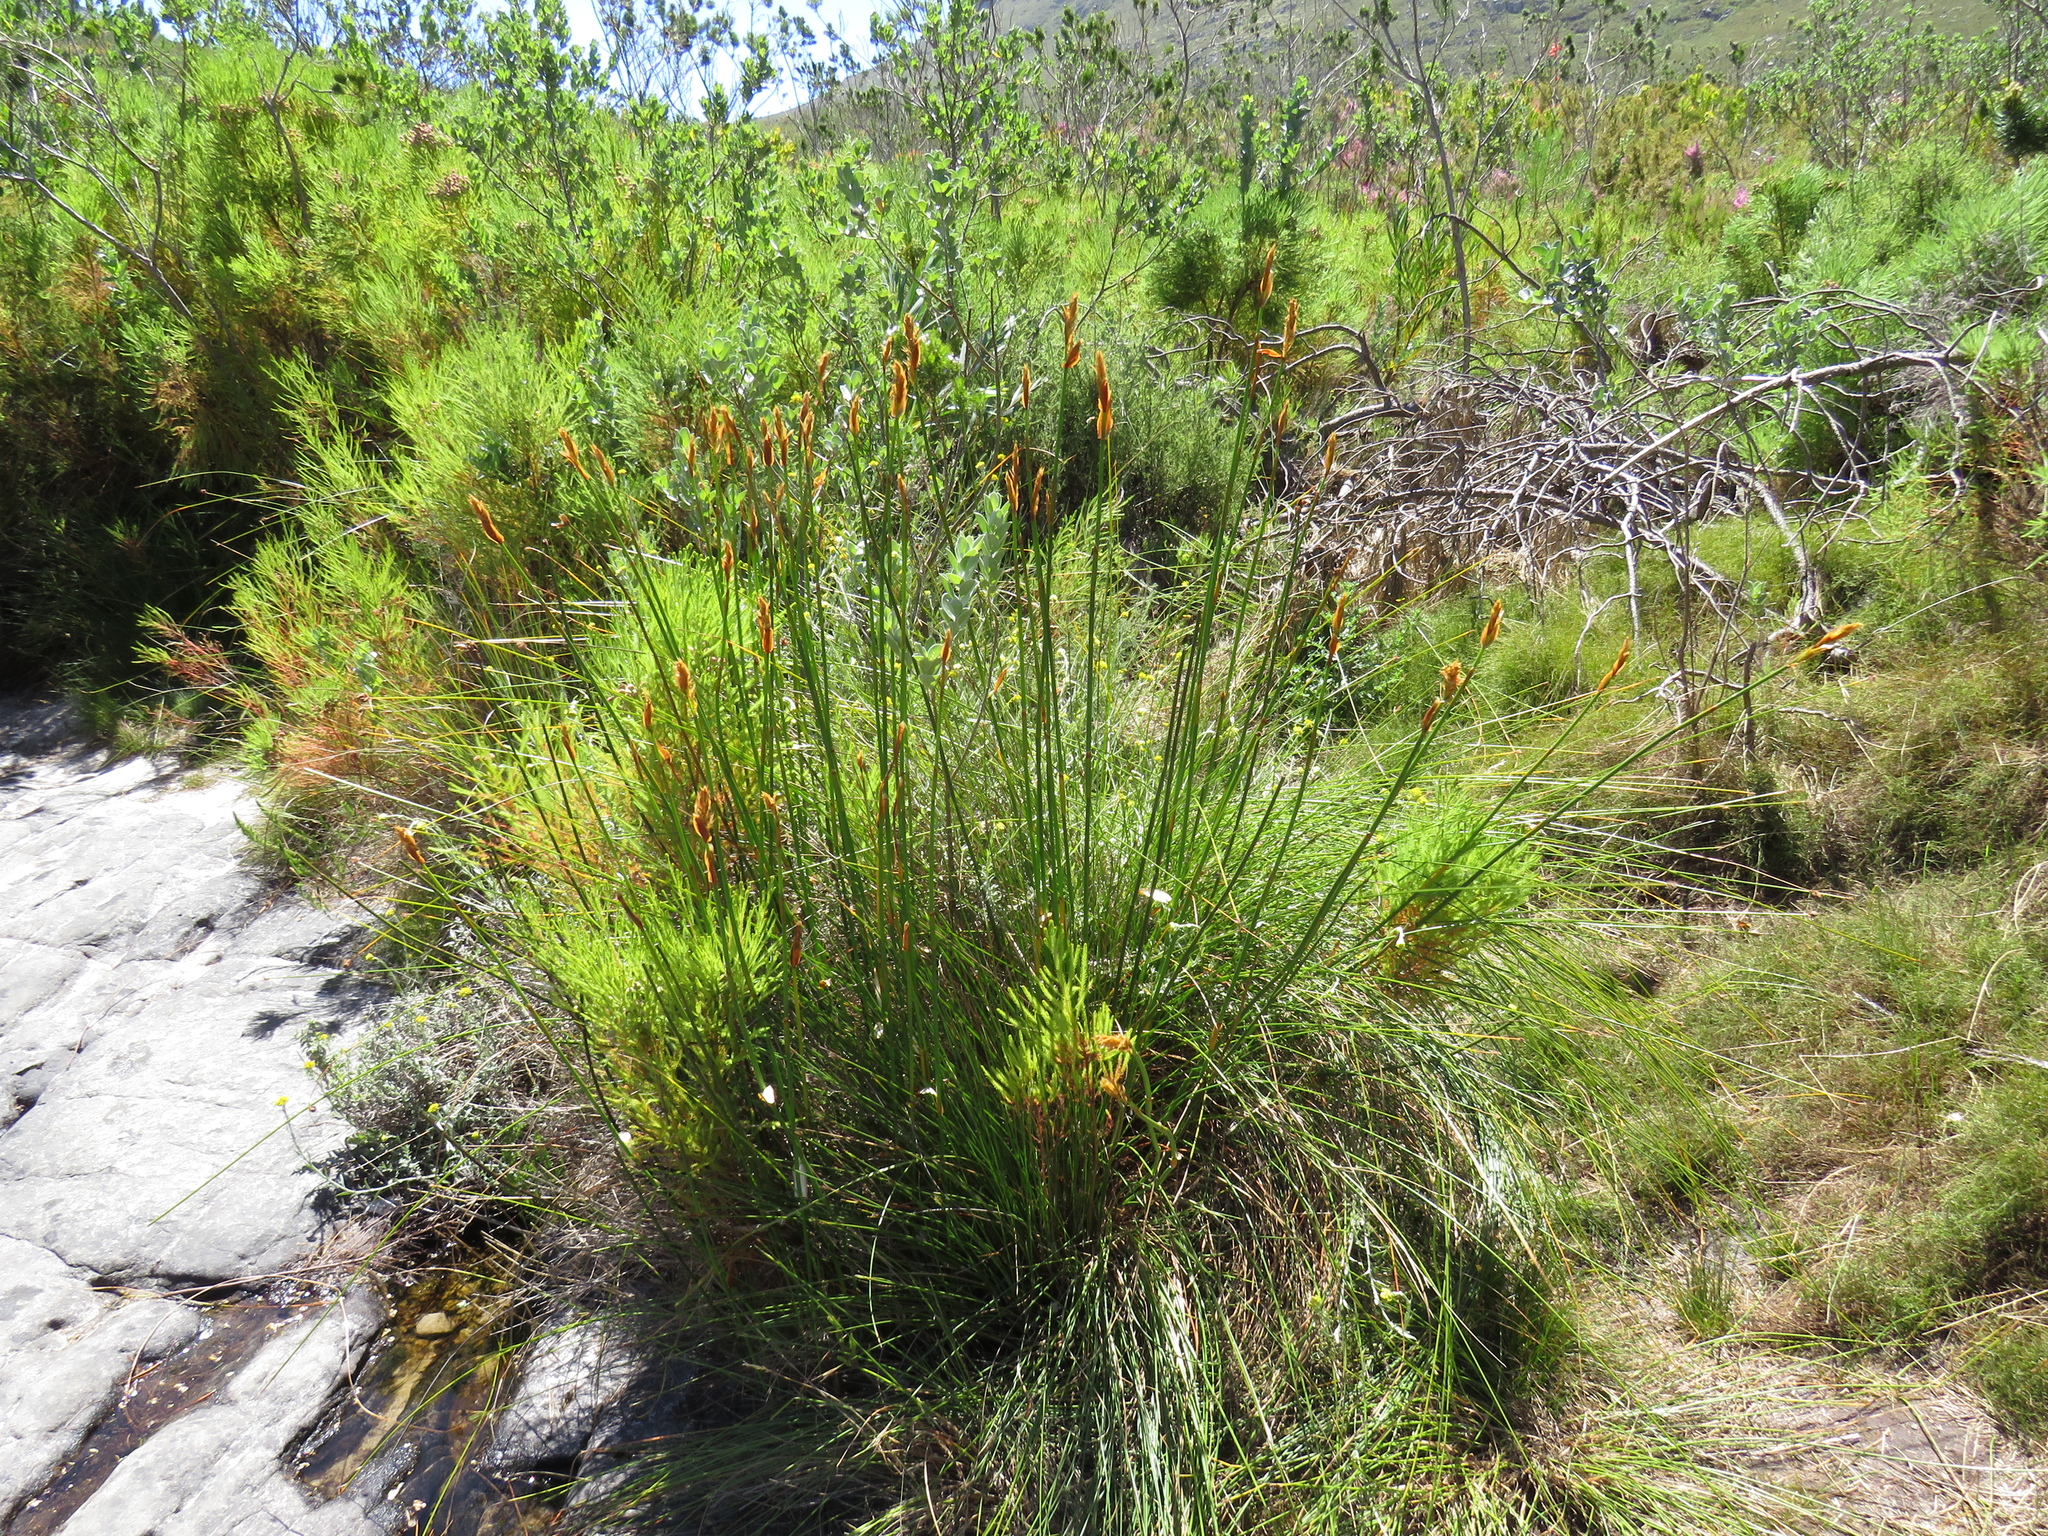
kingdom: Plantae
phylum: Tracheophyta
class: Liliopsida
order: Poales
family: Restionaceae
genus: Elegia
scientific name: Elegia mucronata
